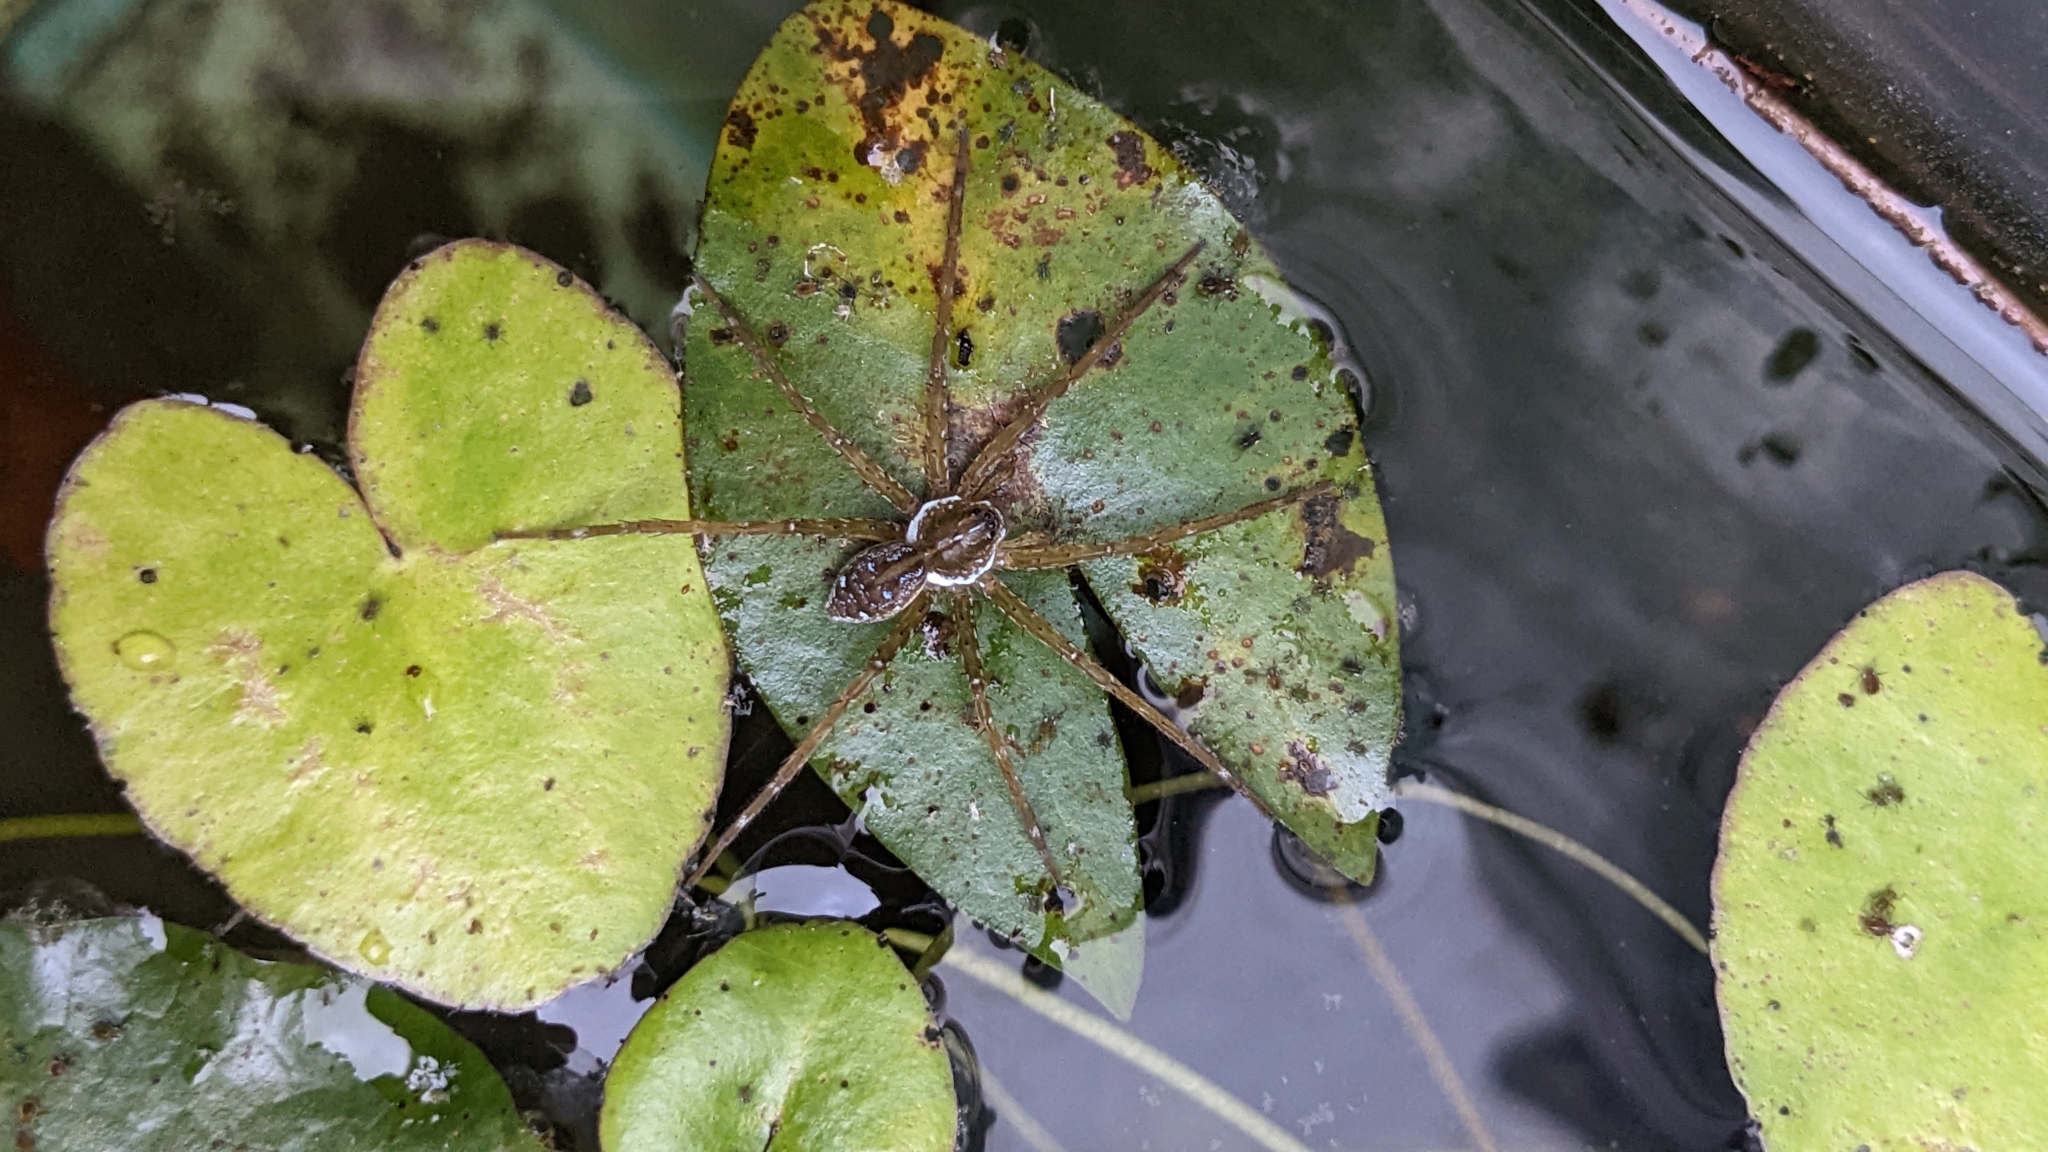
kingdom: Animalia
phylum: Arthropoda
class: Arachnida
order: Araneae
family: Pisauridae
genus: Dolomedes
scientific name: Dolomedes mizhoanus
